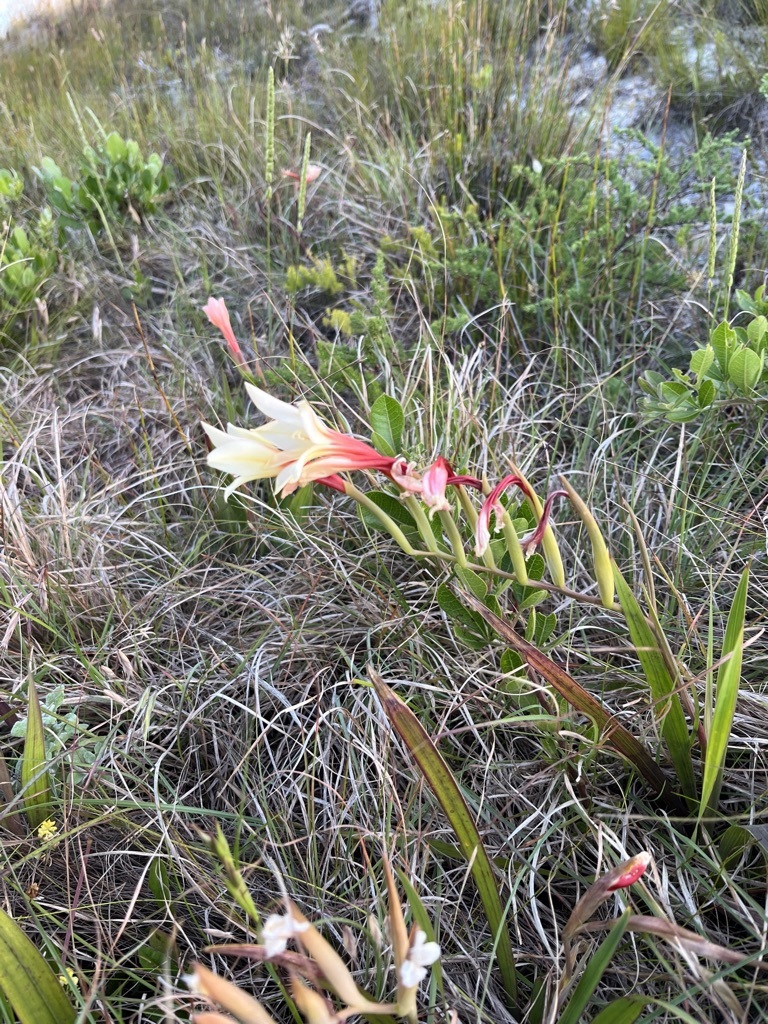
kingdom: Plantae
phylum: Tracheophyta
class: Liliopsida
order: Asparagales
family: Iridaceae
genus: Gladiolus
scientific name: Gladiolus miniatus
